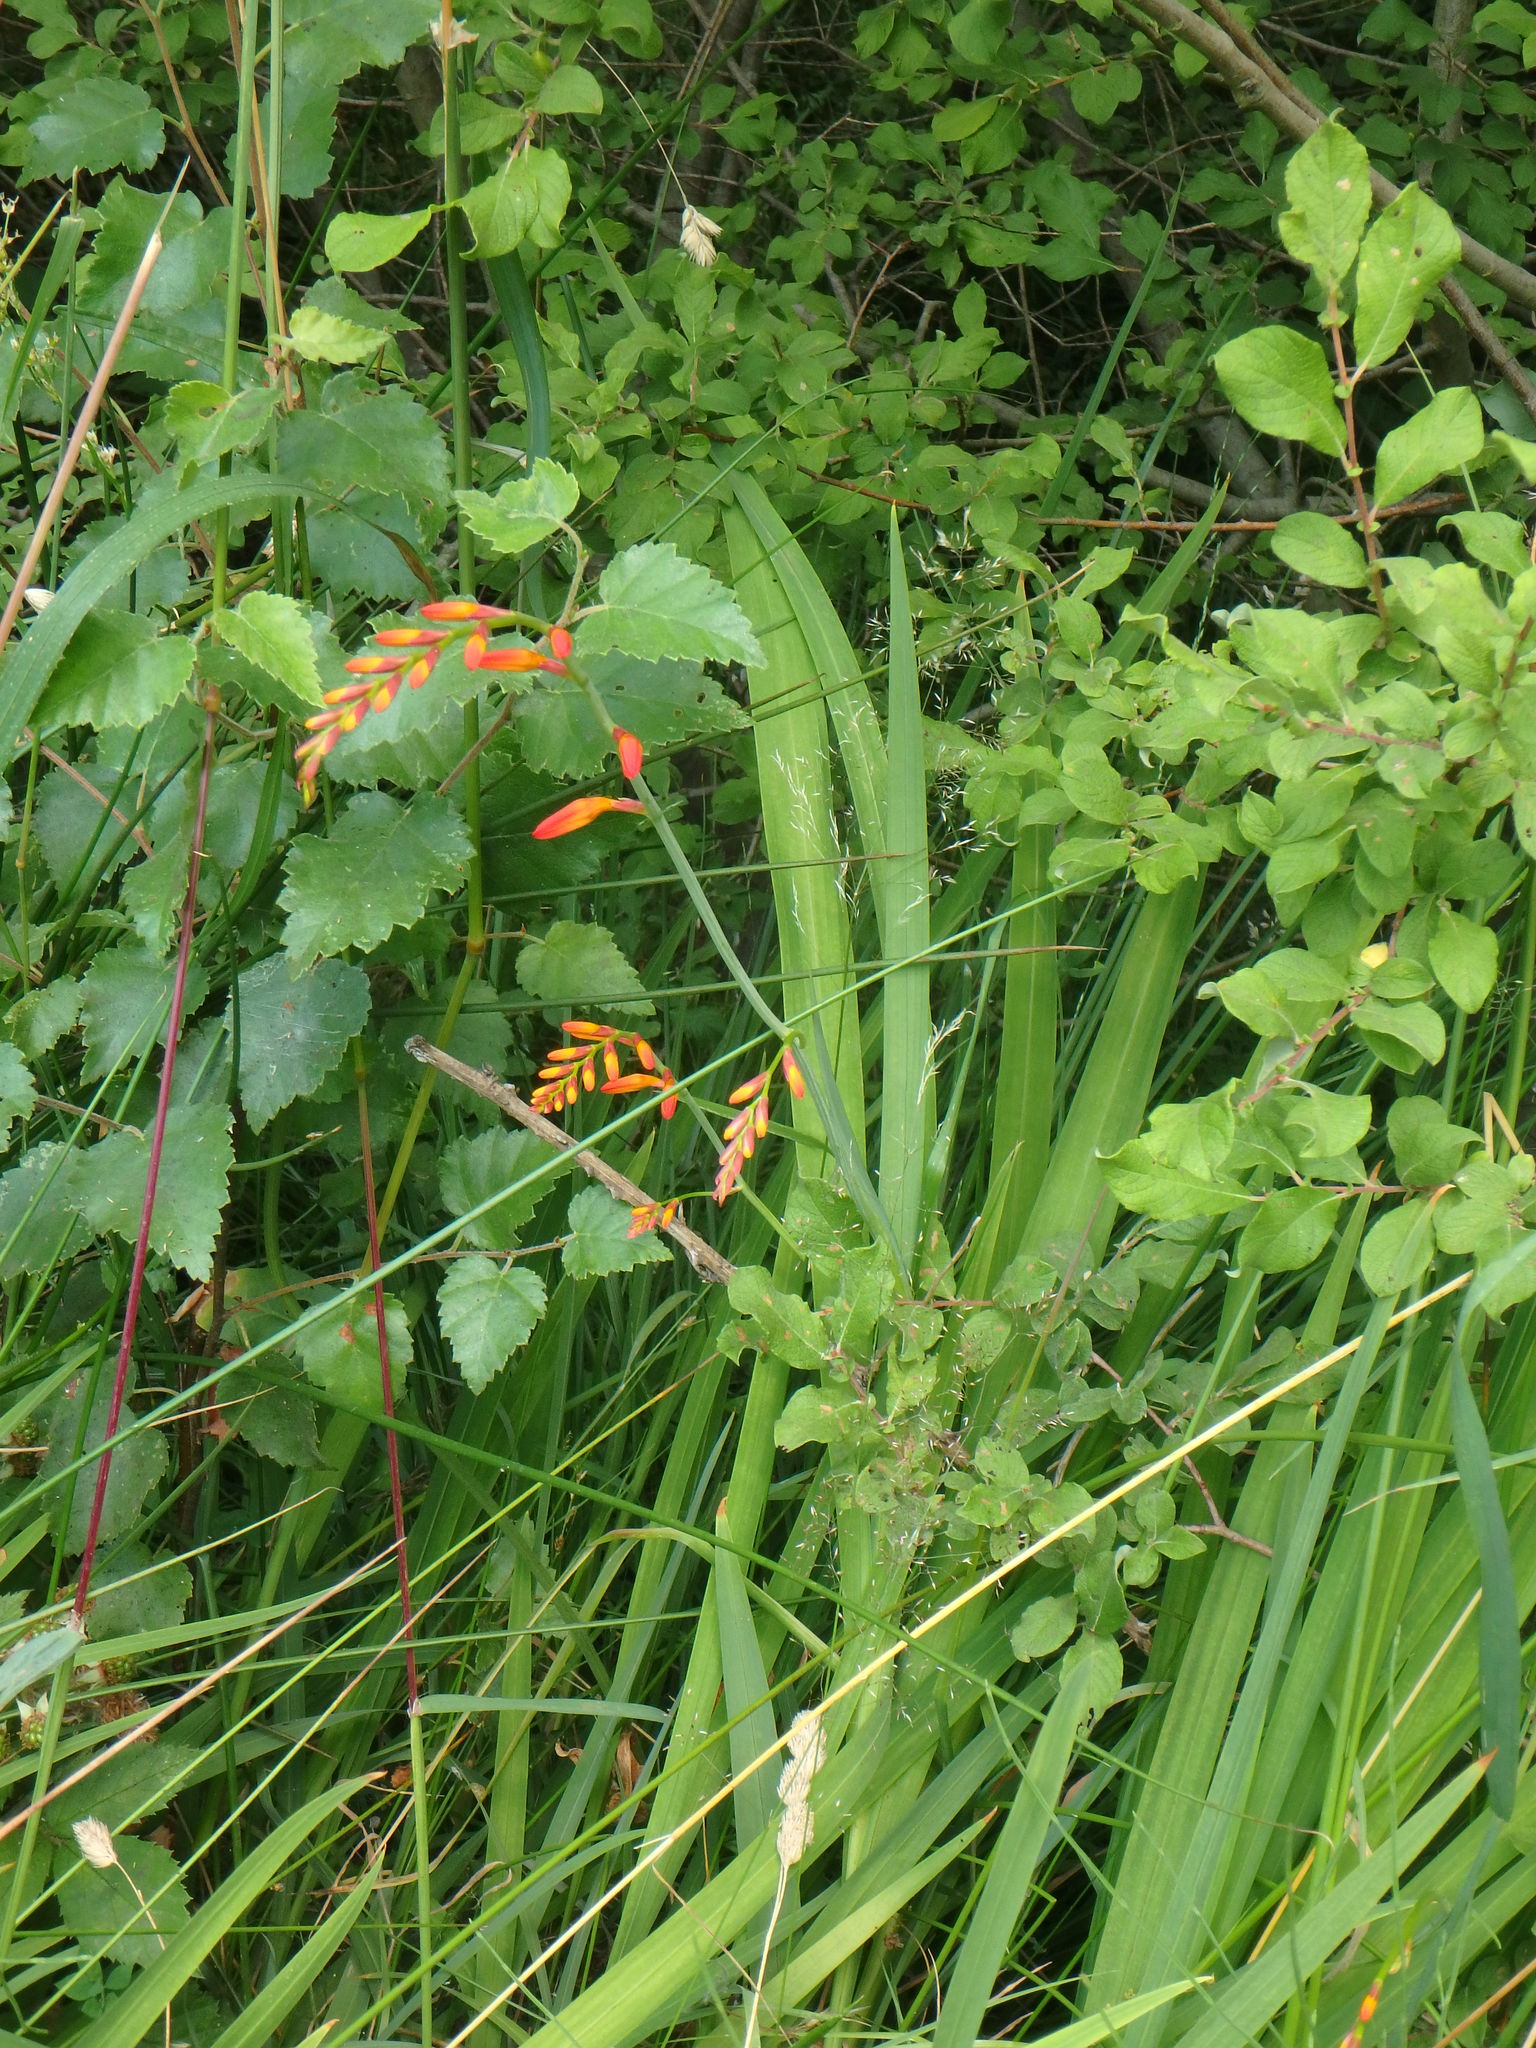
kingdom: Plantae
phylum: Tracheophyta
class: Liliopsida
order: Asparagales
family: Iridaceae
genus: Crocosmia
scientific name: Crocosmia crocosmiiflora
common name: Montbretia
